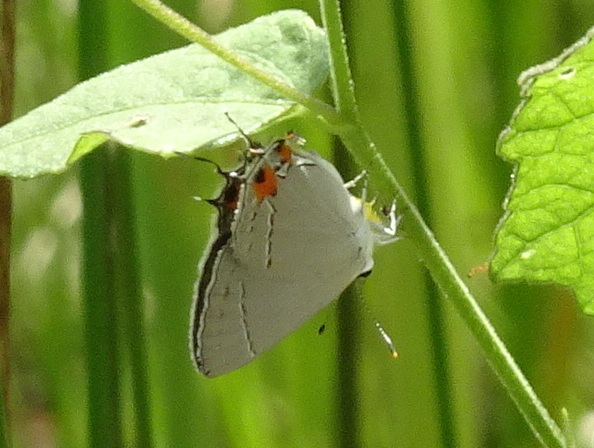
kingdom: Animalia
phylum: Arthropoda
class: Insecta
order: Lepidoptera
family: Lycaenidae
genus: Strymon
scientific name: Strymon melinus
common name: Gray hairstreak
